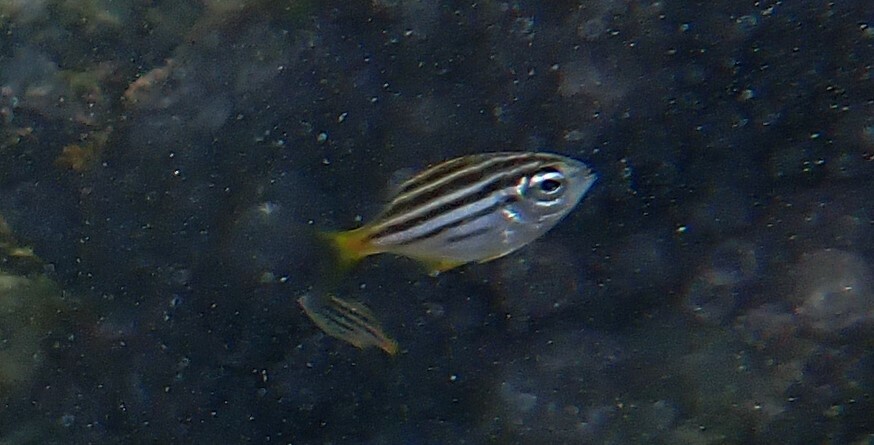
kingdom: Animalia
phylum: Chordata
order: Perciformes
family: Kyphosidae
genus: Atypichthys
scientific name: Atypichthys strigatus
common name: Australian mado
